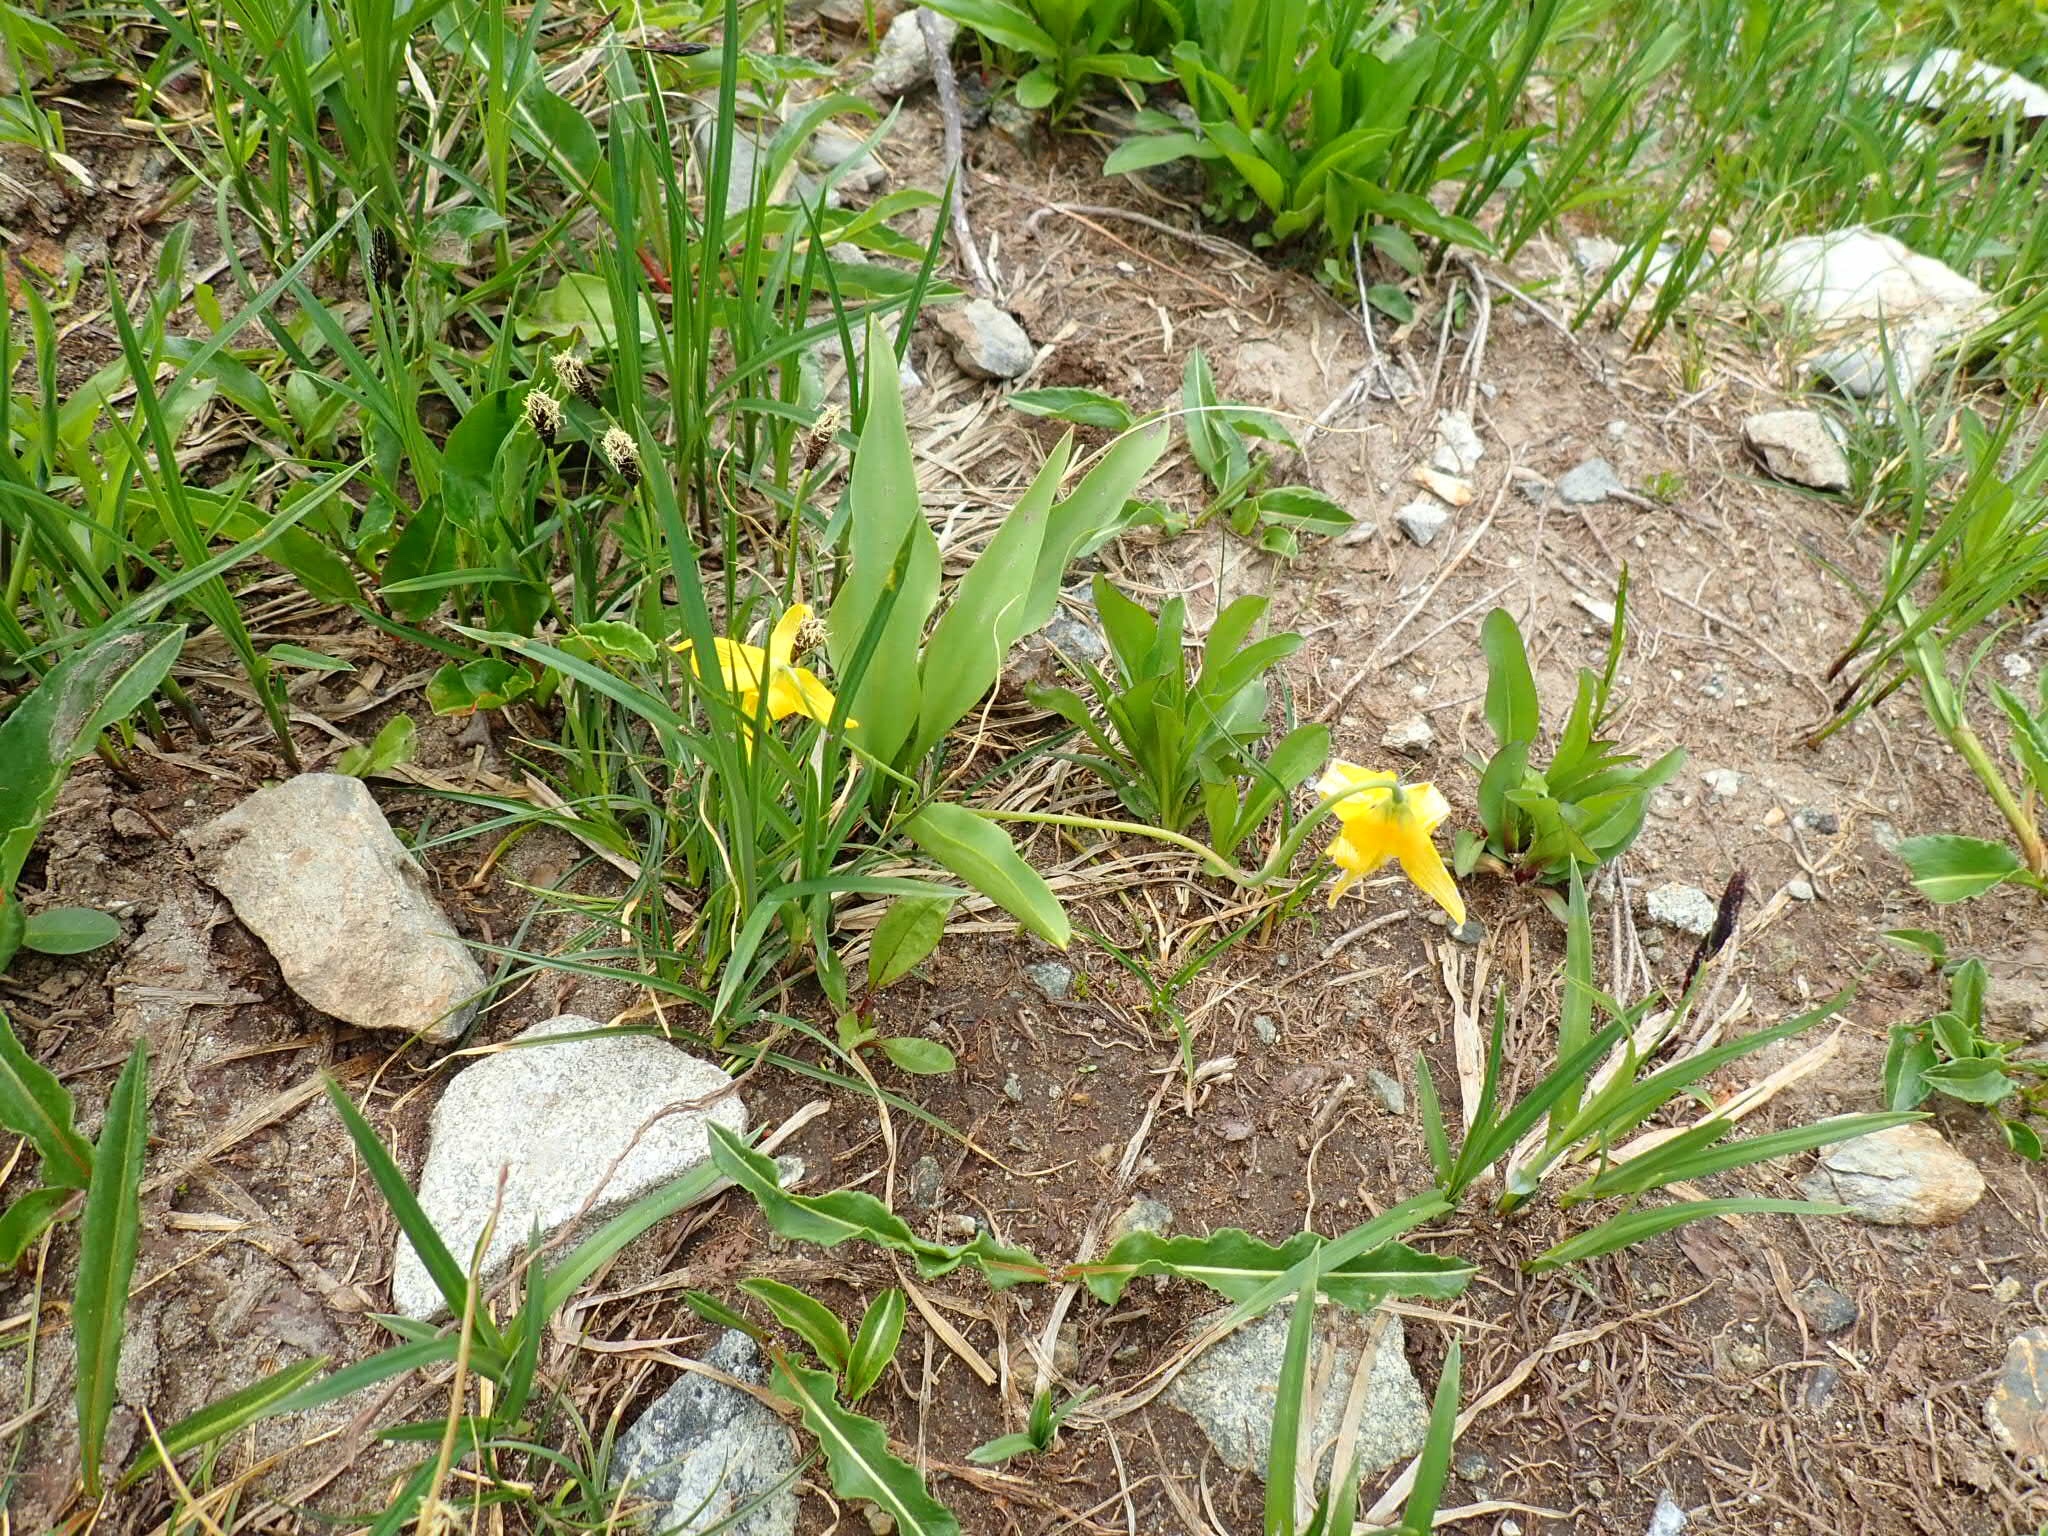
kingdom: Plantae
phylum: Tracheophyta
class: Liliopsida
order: Liliales
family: Liliaceae
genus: Erythronium
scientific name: Erythronium grandiflorum
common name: Avalanche-lily
